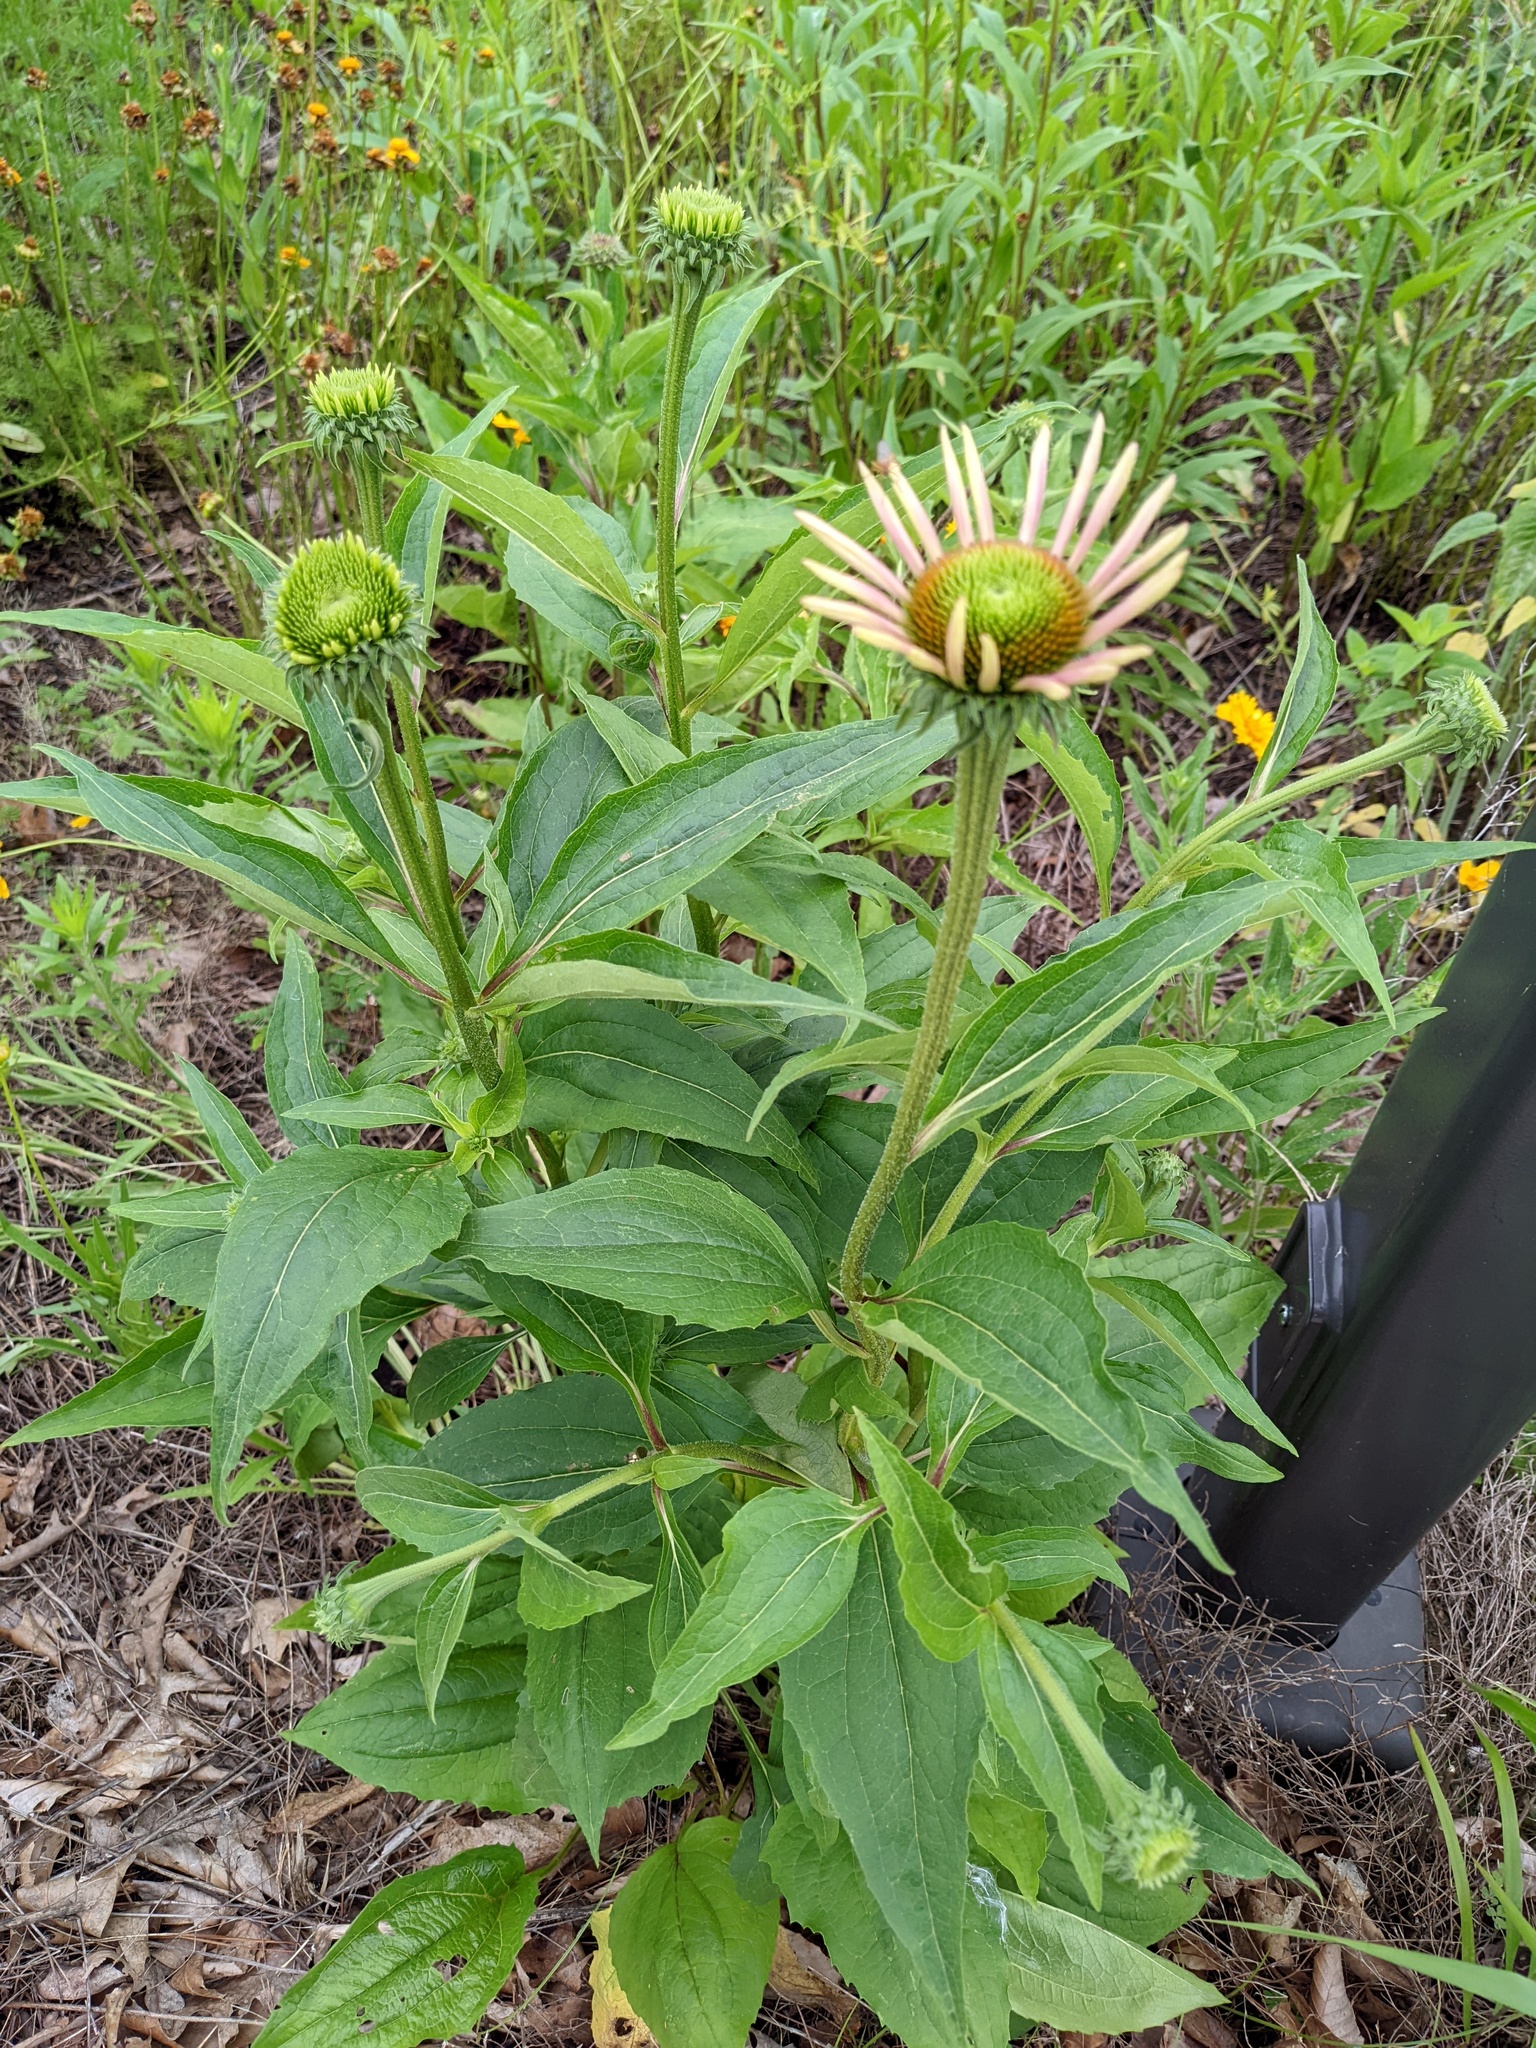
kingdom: Plantae
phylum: Tracheophyta
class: Magnoliopsida
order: Asterales
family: Asteraceae
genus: Echinacea
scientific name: Echinacea purpurea
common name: Broad-leaved purple coneflower
